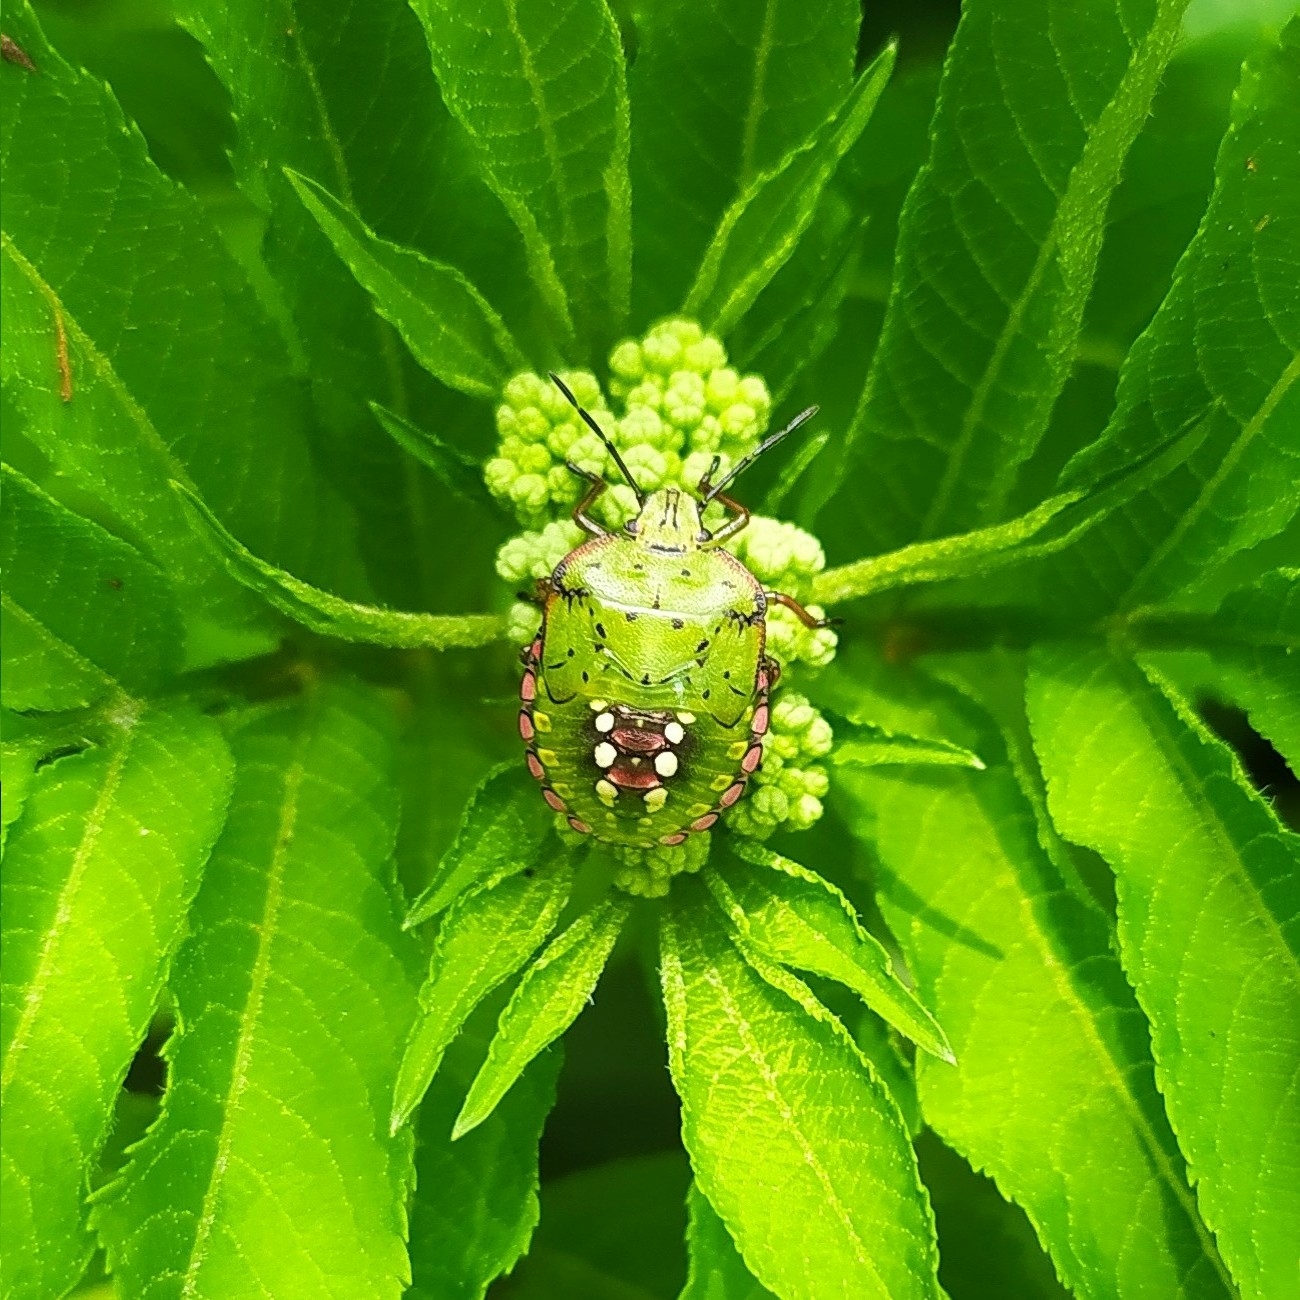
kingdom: Animalia
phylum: Arthropoda
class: Insecta
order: Hemiptera
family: Pentatomidae
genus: Nezara
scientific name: Nezara viridula
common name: Southern green stink bug
